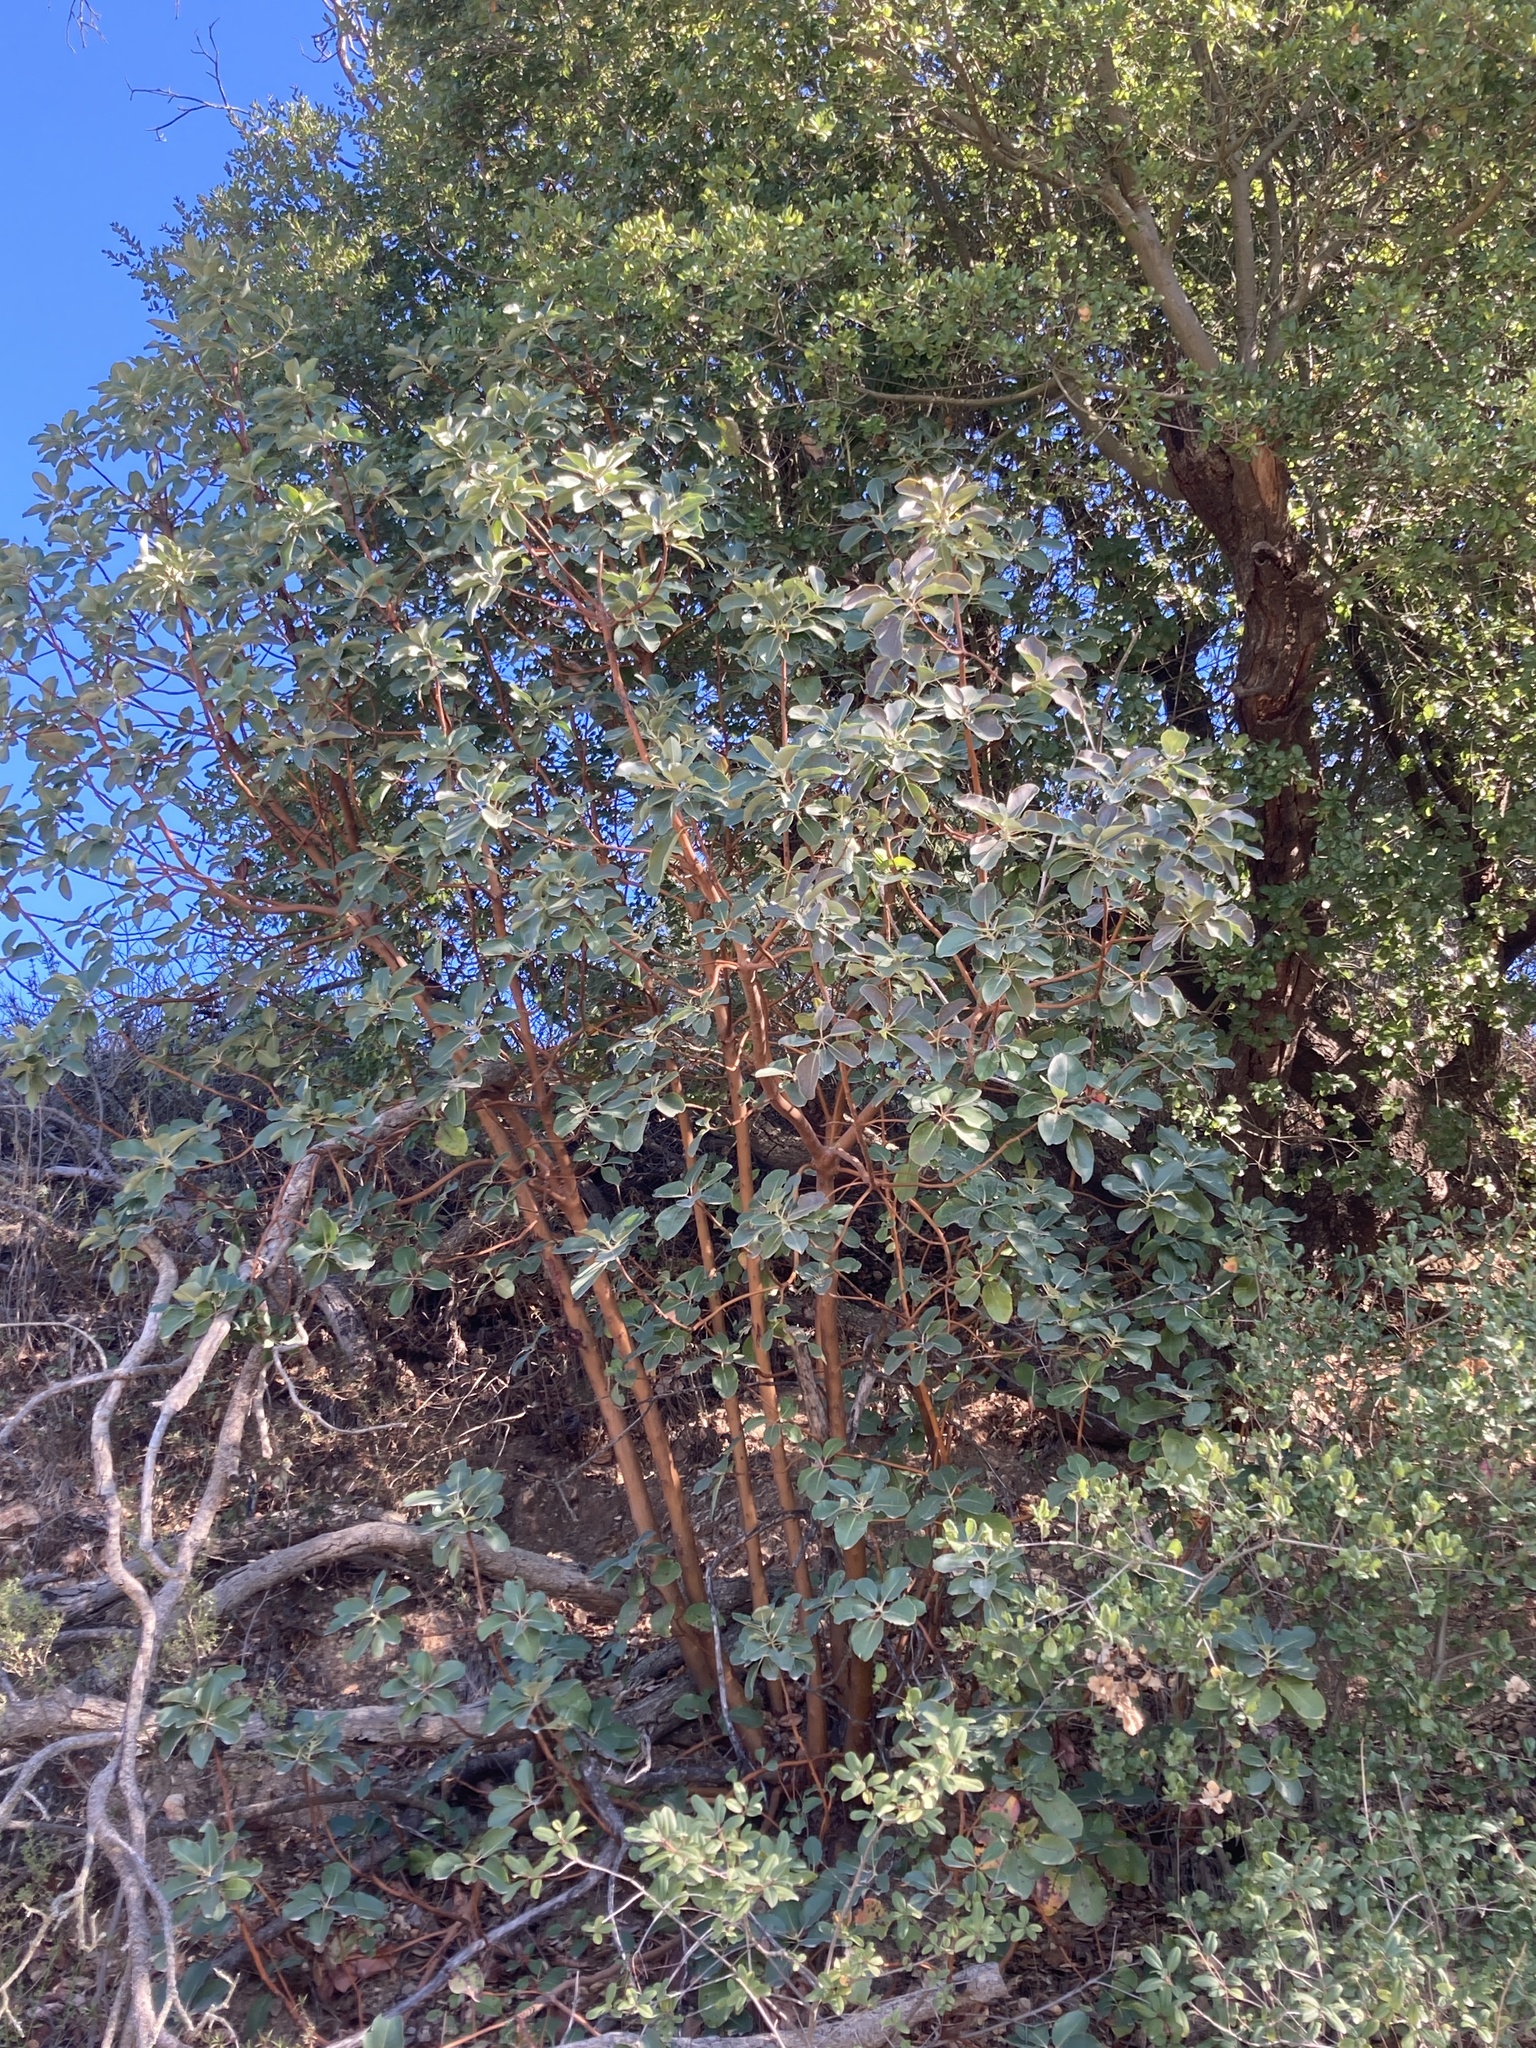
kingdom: Plantae
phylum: Tracheophyta
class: Magnoliopsida
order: Ericales
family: Ericaceae
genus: Arbutus
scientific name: Arbutus menziesii
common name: Pacific madrone
